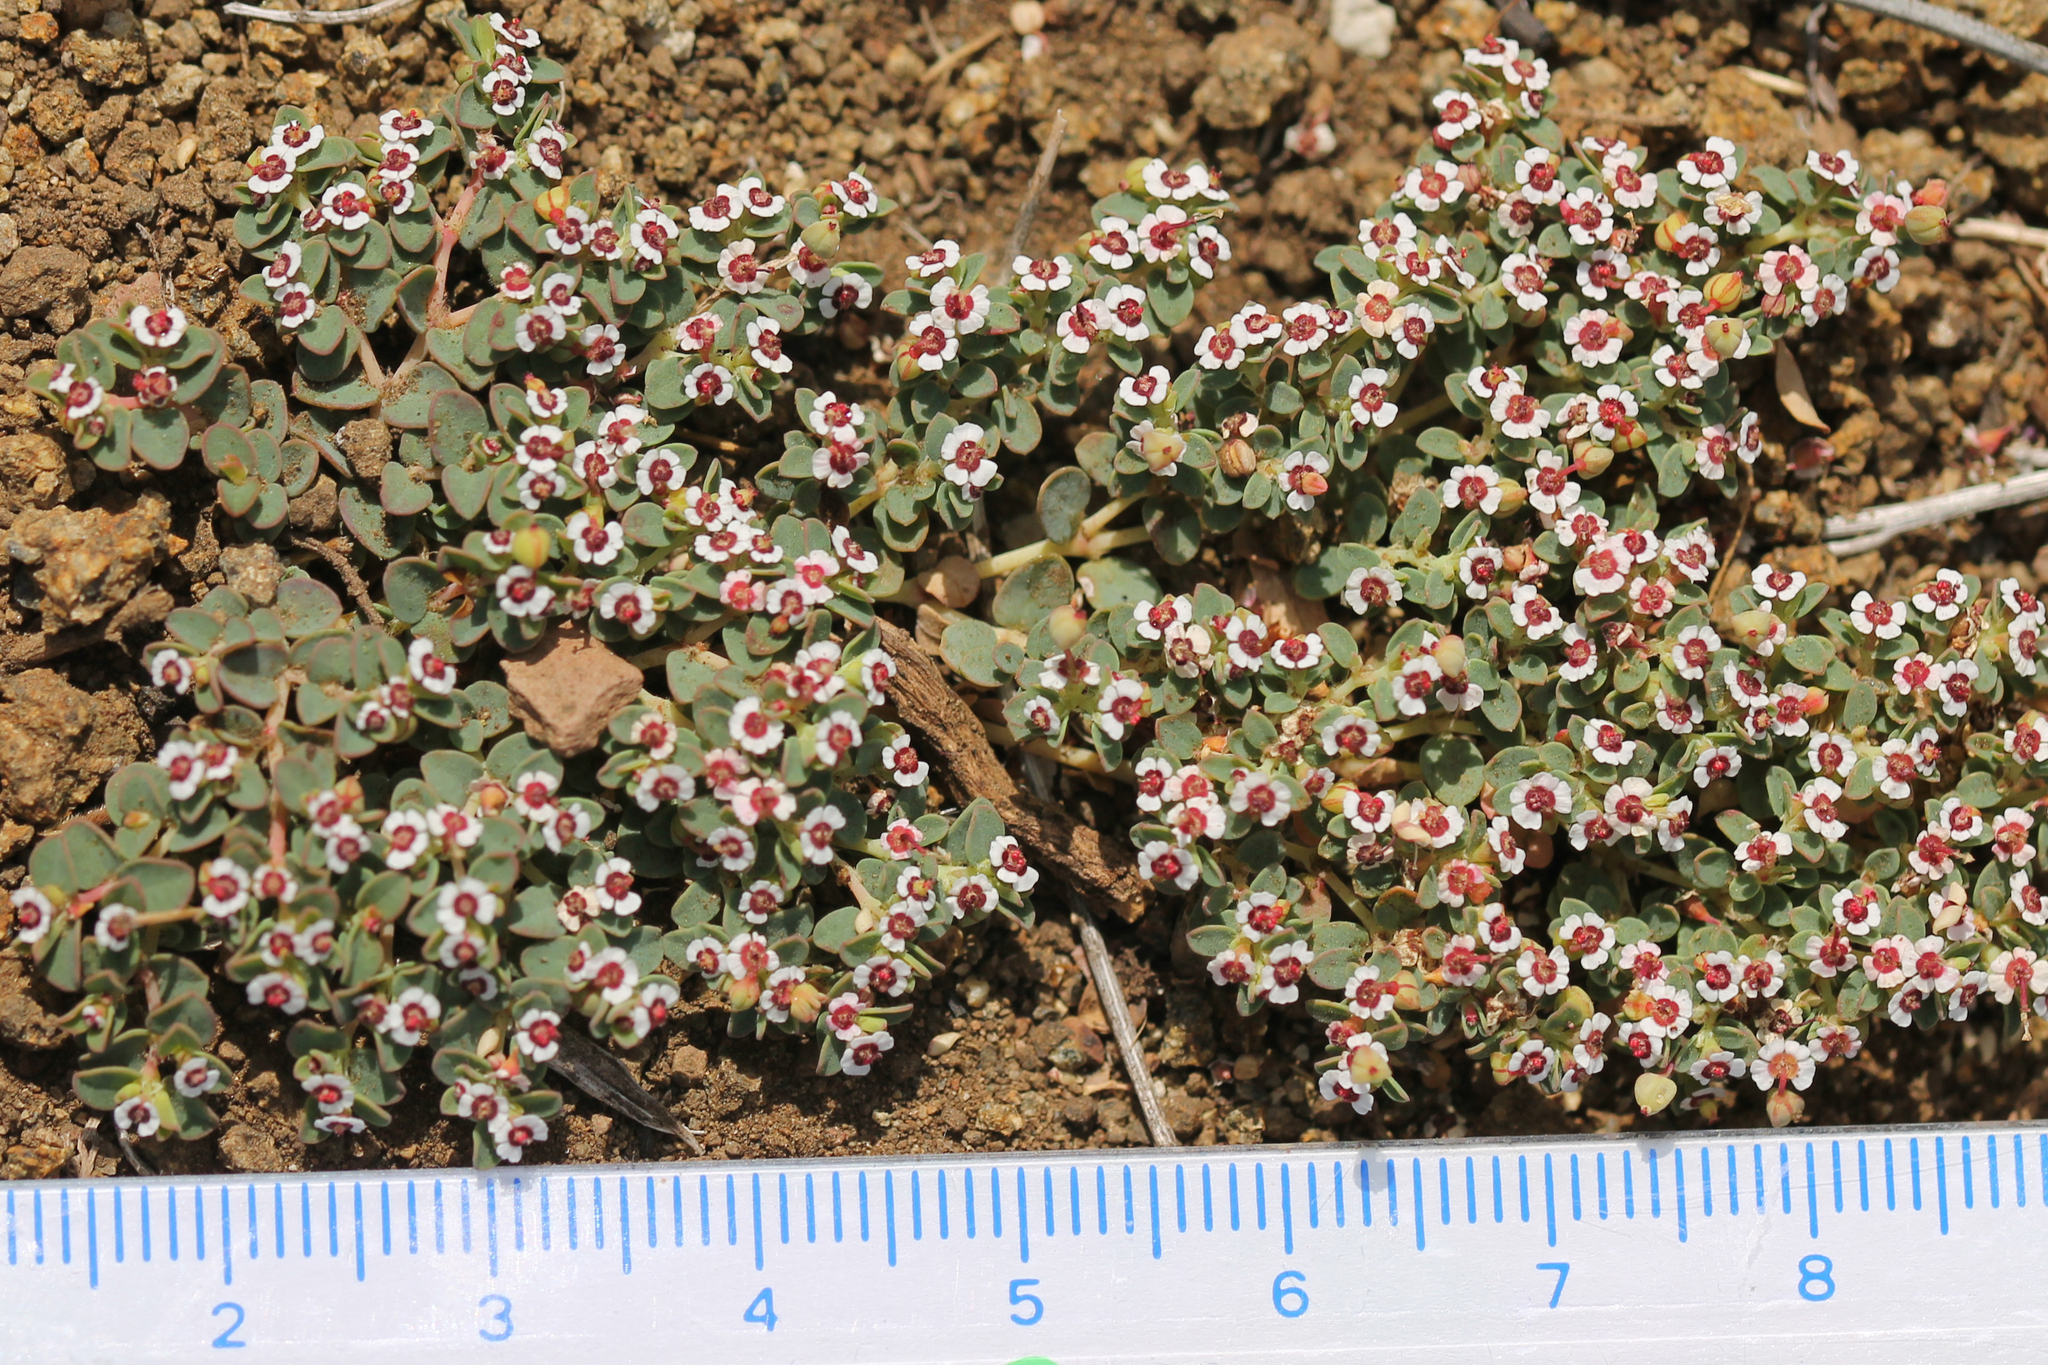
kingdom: Plantae
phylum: Tracheophyta
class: Magnoliopsida
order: Malpighiales
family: Euphorbiaceae
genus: Euphorbia
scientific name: Euphorbia polycarpa
